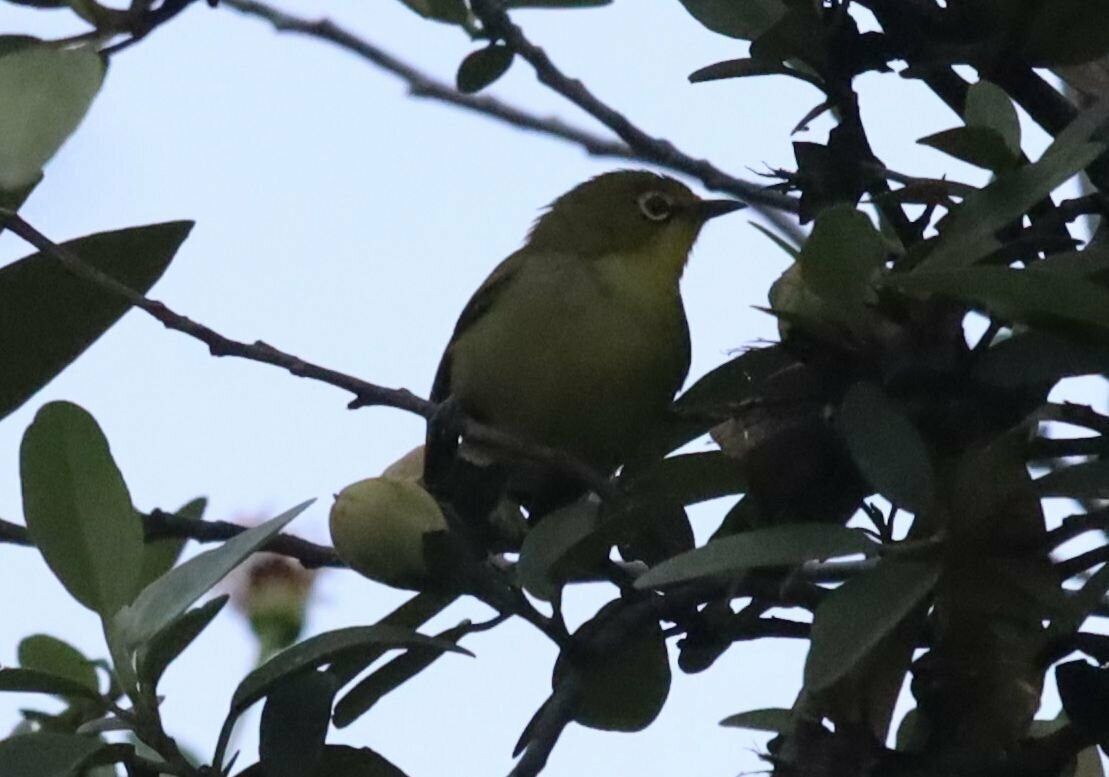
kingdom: Animalia
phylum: Chordata
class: Aves
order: Passeriformes
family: Zosteropidae
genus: Zosterops
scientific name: Zosterops virens
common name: Cape white-eye
